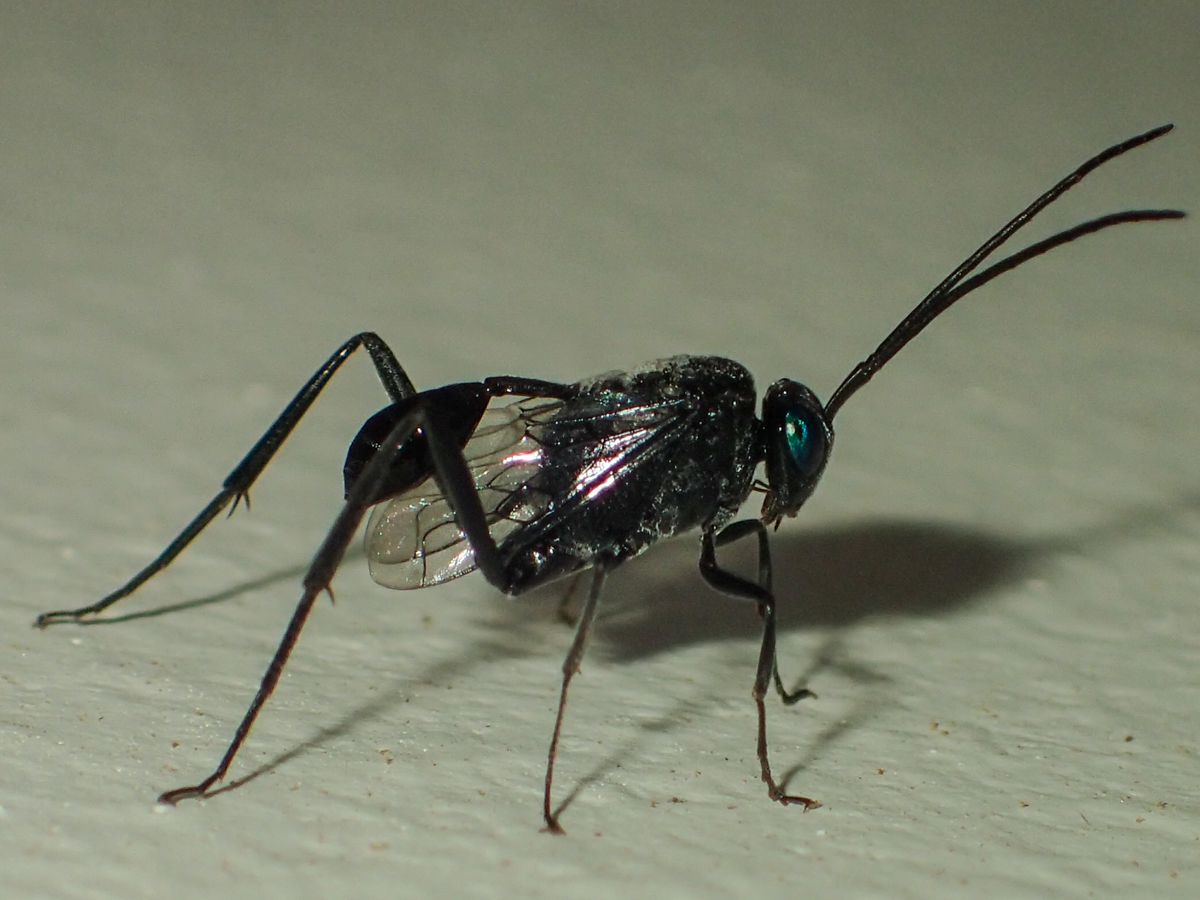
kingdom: Animalia
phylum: Arthropoda
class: Insecta
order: Hymenoptera
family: Evaniidae
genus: Evania
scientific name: Evania appendigaster
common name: Ensign wasp
